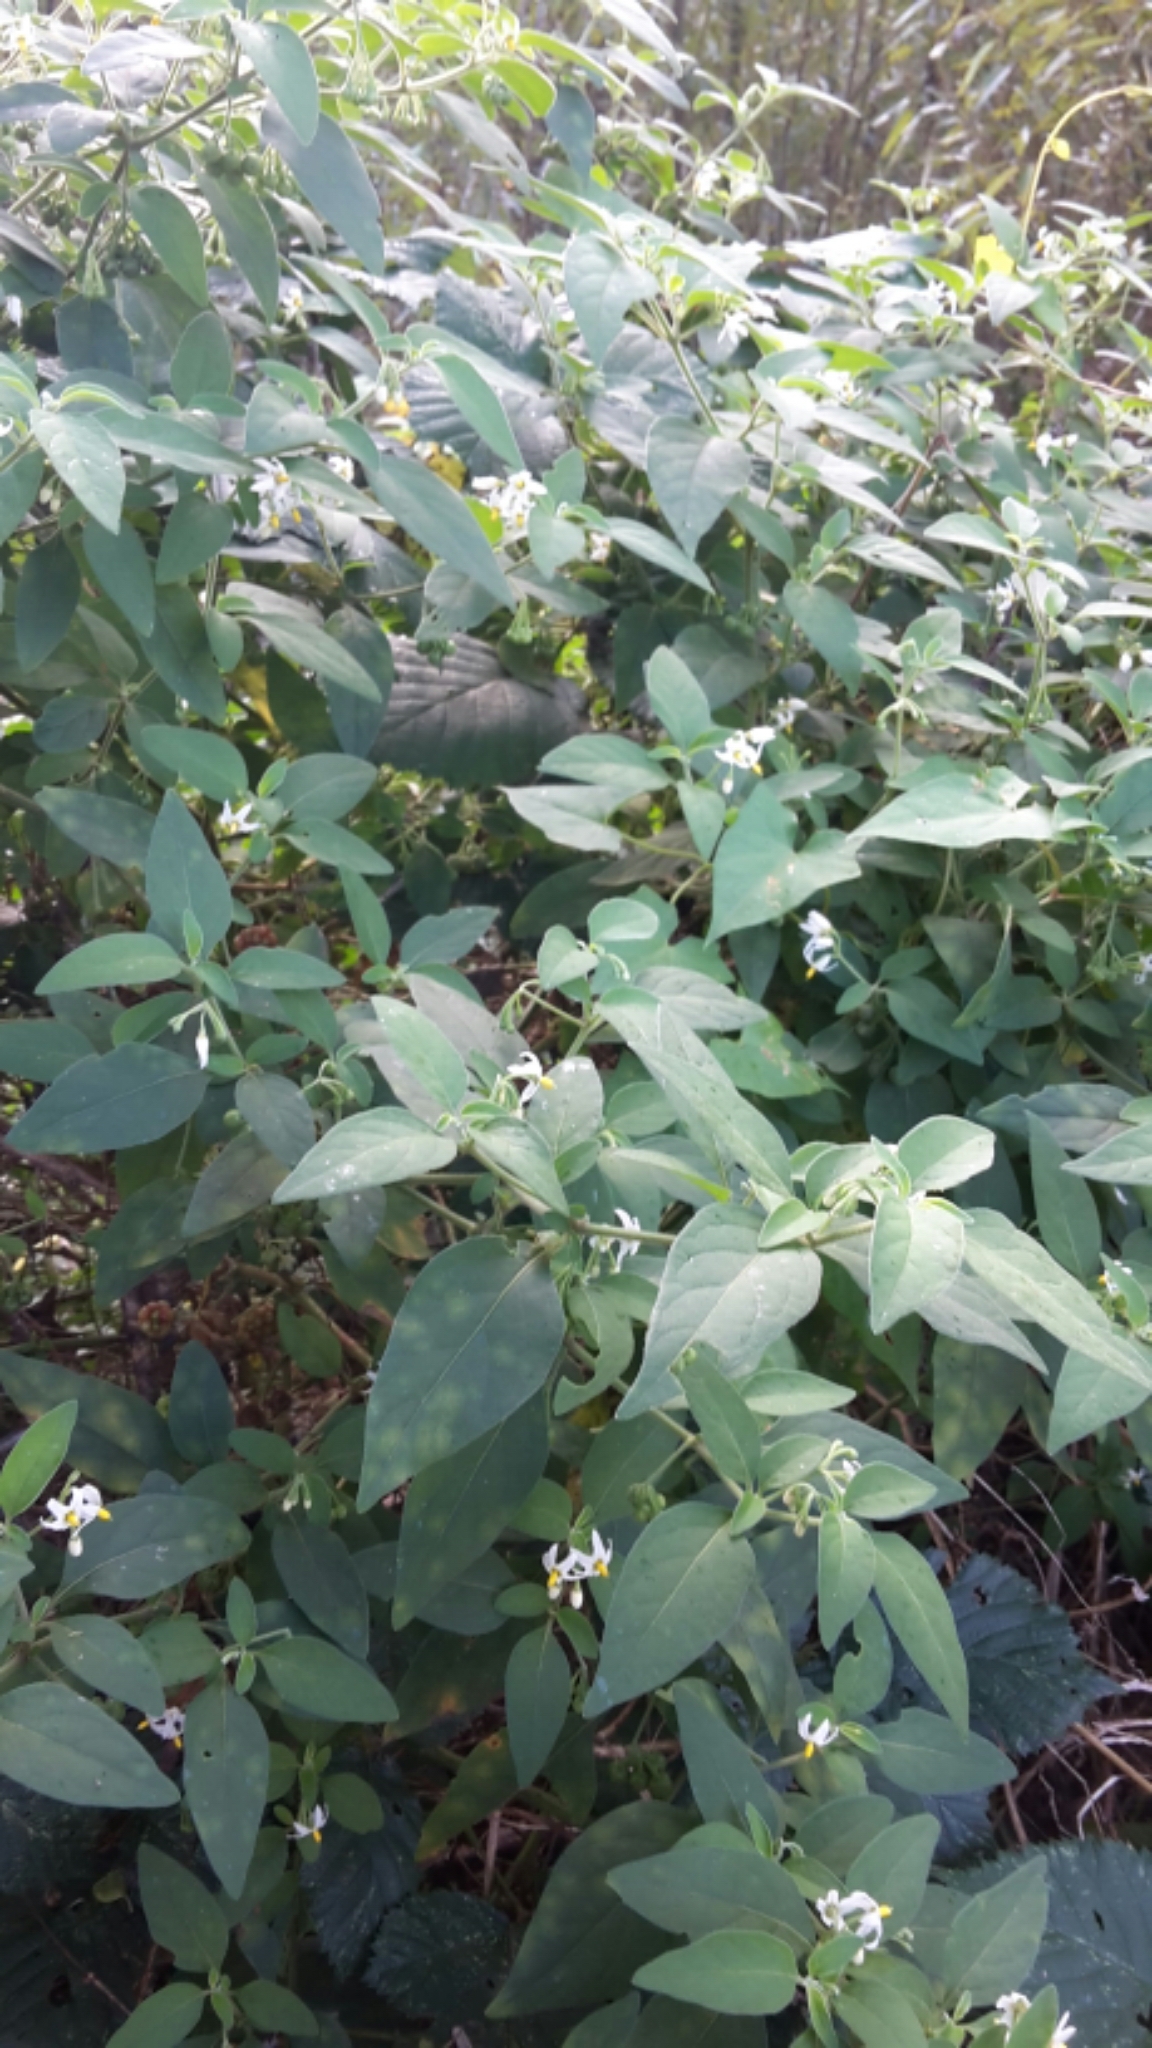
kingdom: Plantae
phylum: Tracheophyta
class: Magnoliopsida
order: Solanales
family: Solanaceae
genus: Solanum
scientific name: Solanum chenopodioides
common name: Tall nightshade
